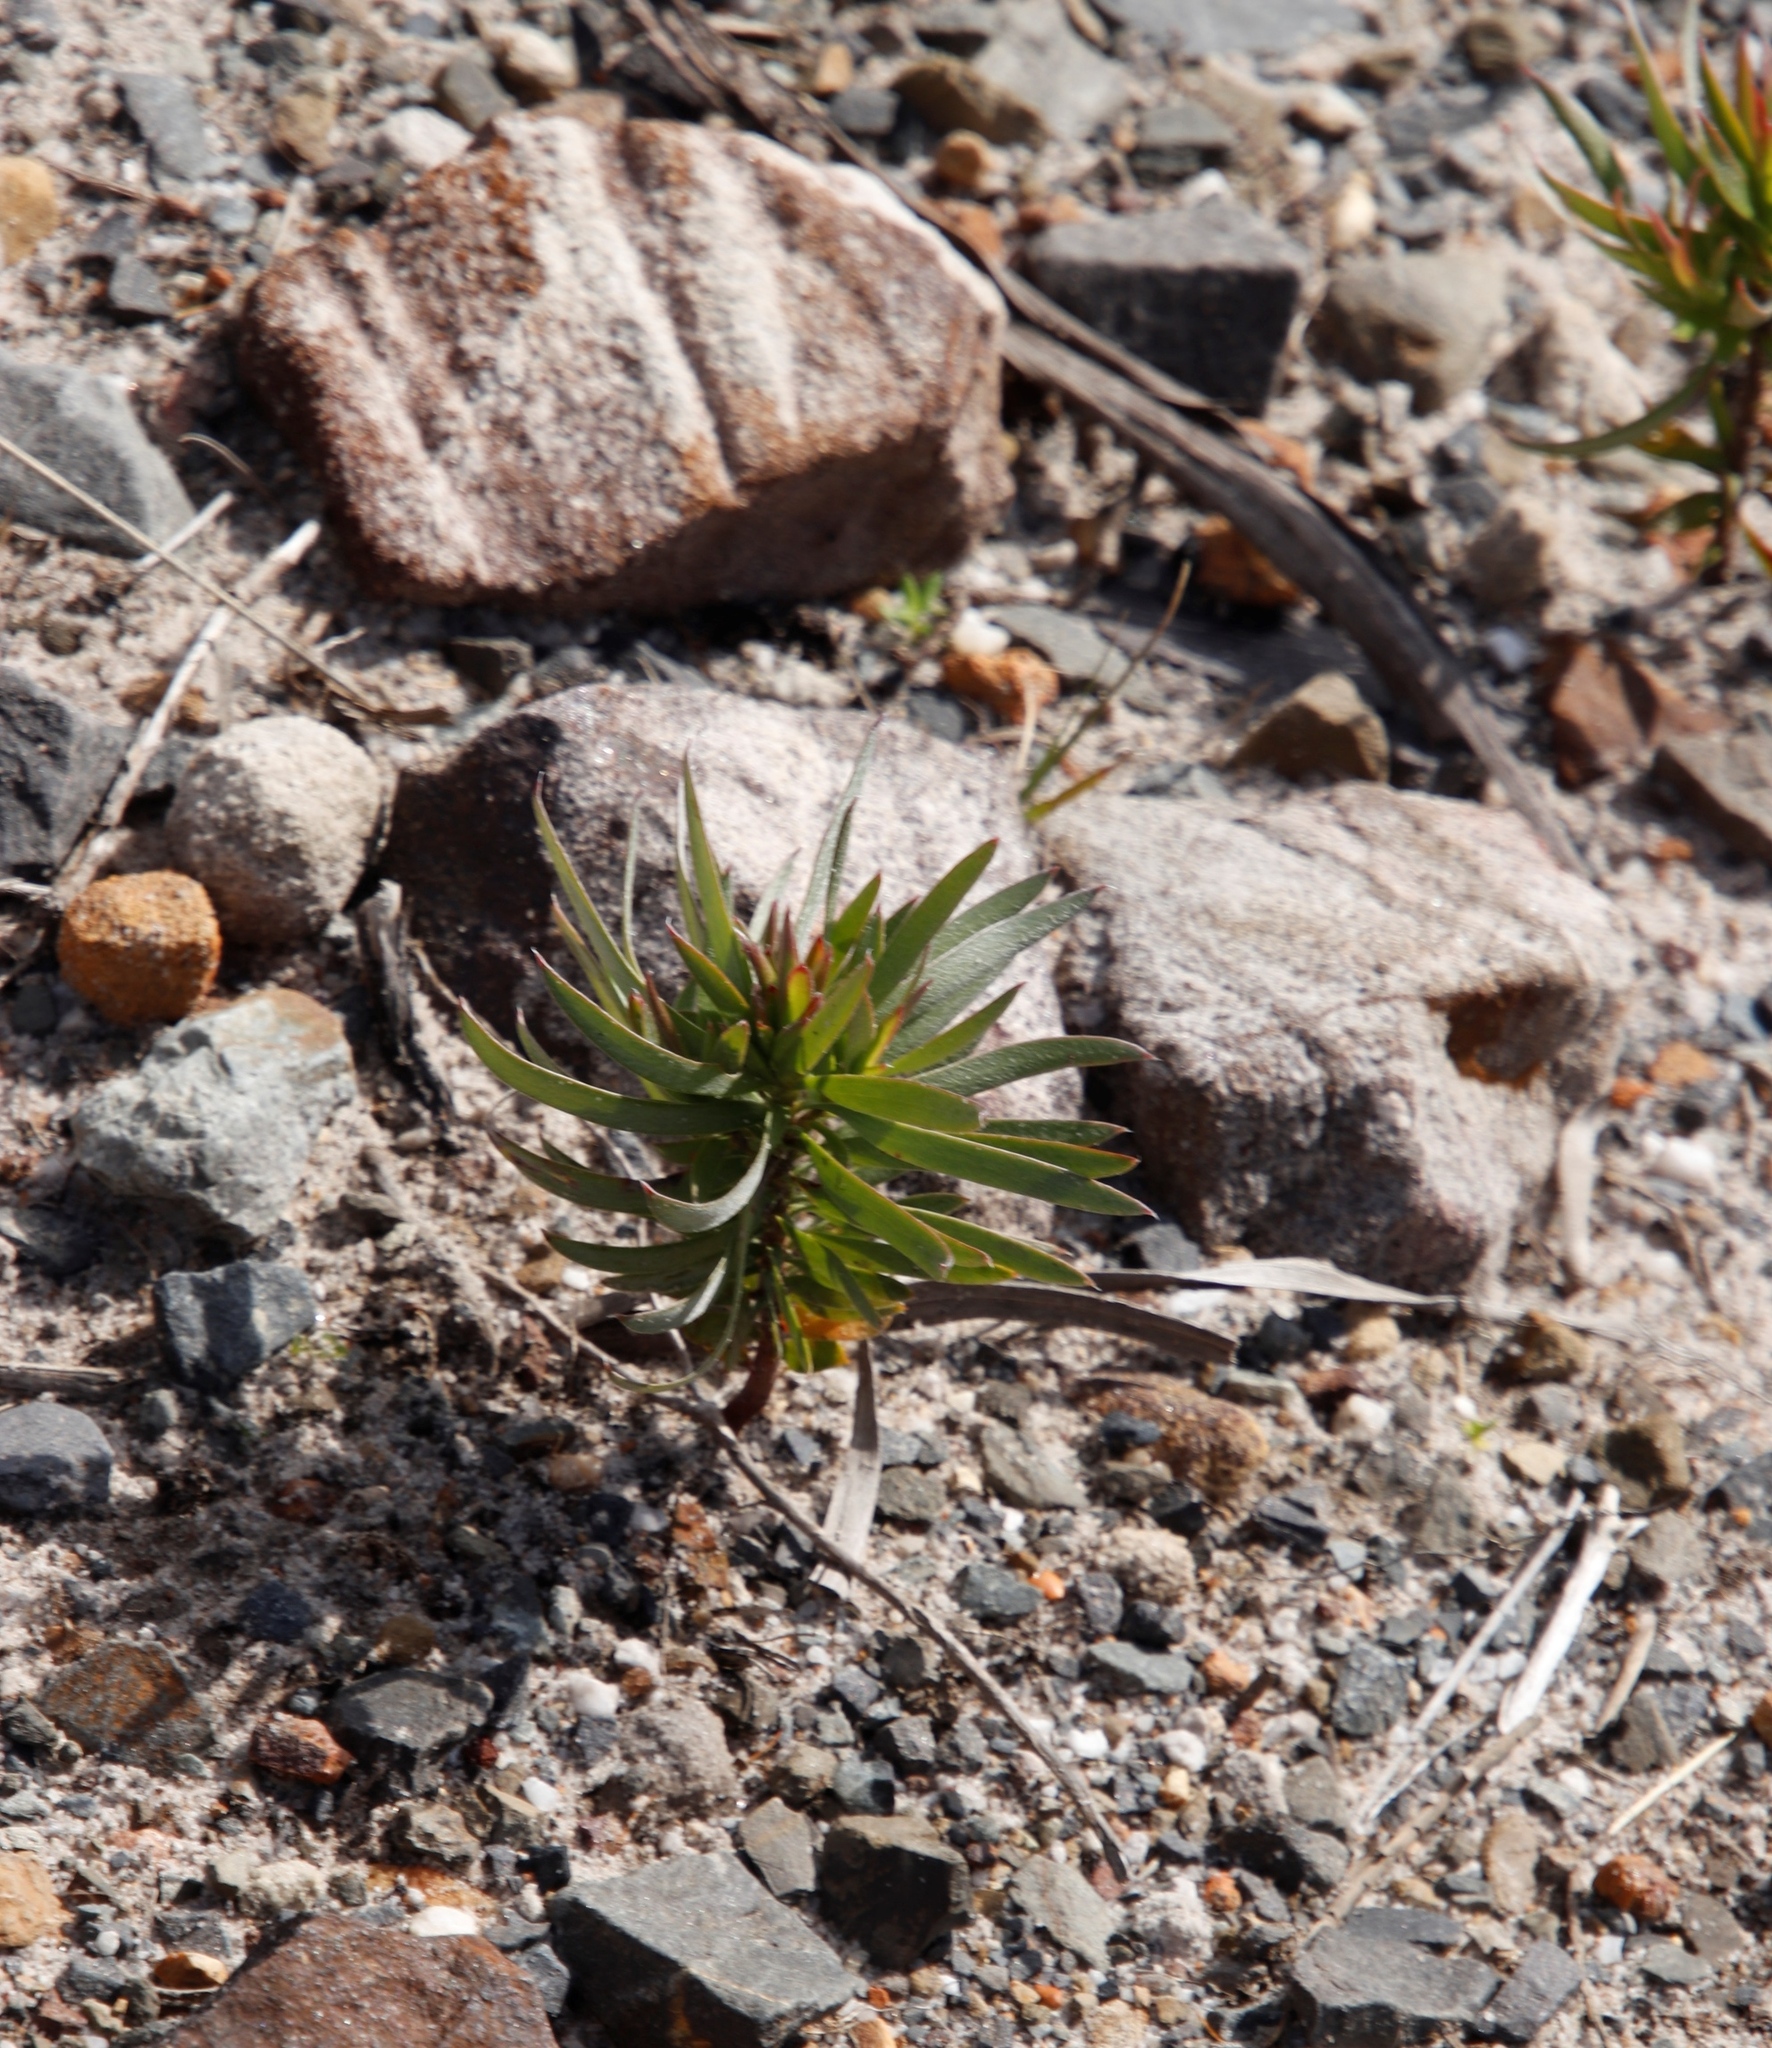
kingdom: Plantae
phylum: Tracheophyta
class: Magnoliopsida
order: Proteales
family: Proteaceae
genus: Leucadendron
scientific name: Leucadendron xanthoconus
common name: Sickle-leaf conebush
